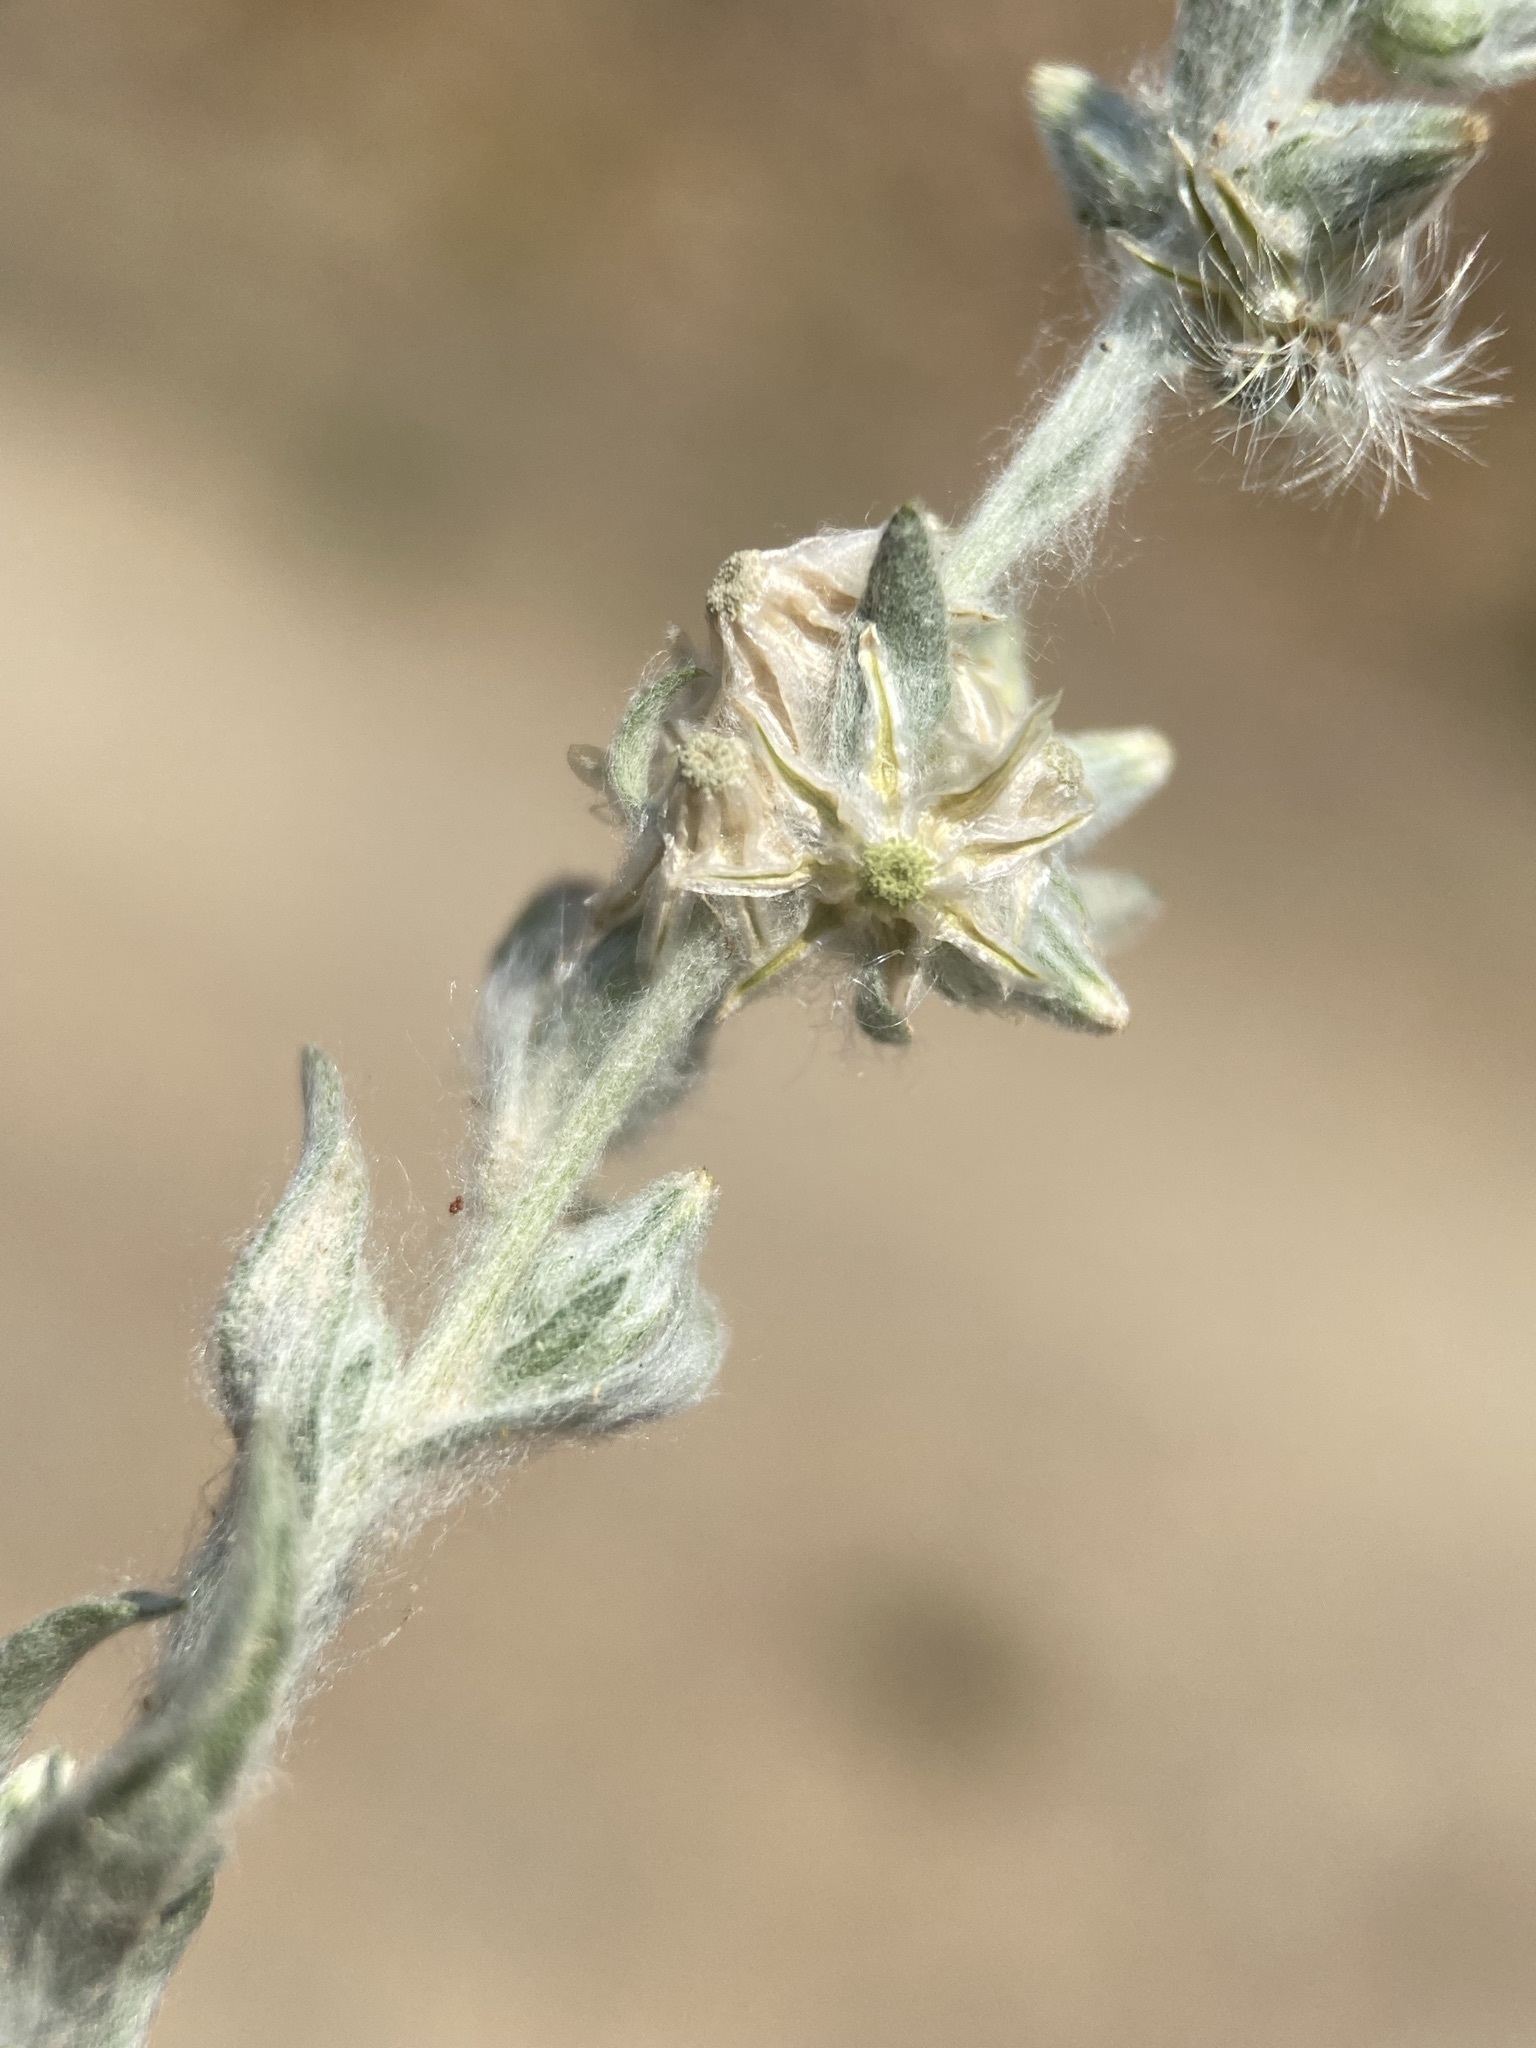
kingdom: Plantae
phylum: Tracheophyta
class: Magnoliopsida
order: Asterales
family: Asteraceae
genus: Filago
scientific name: Filago arvensis
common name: Field cudweed
